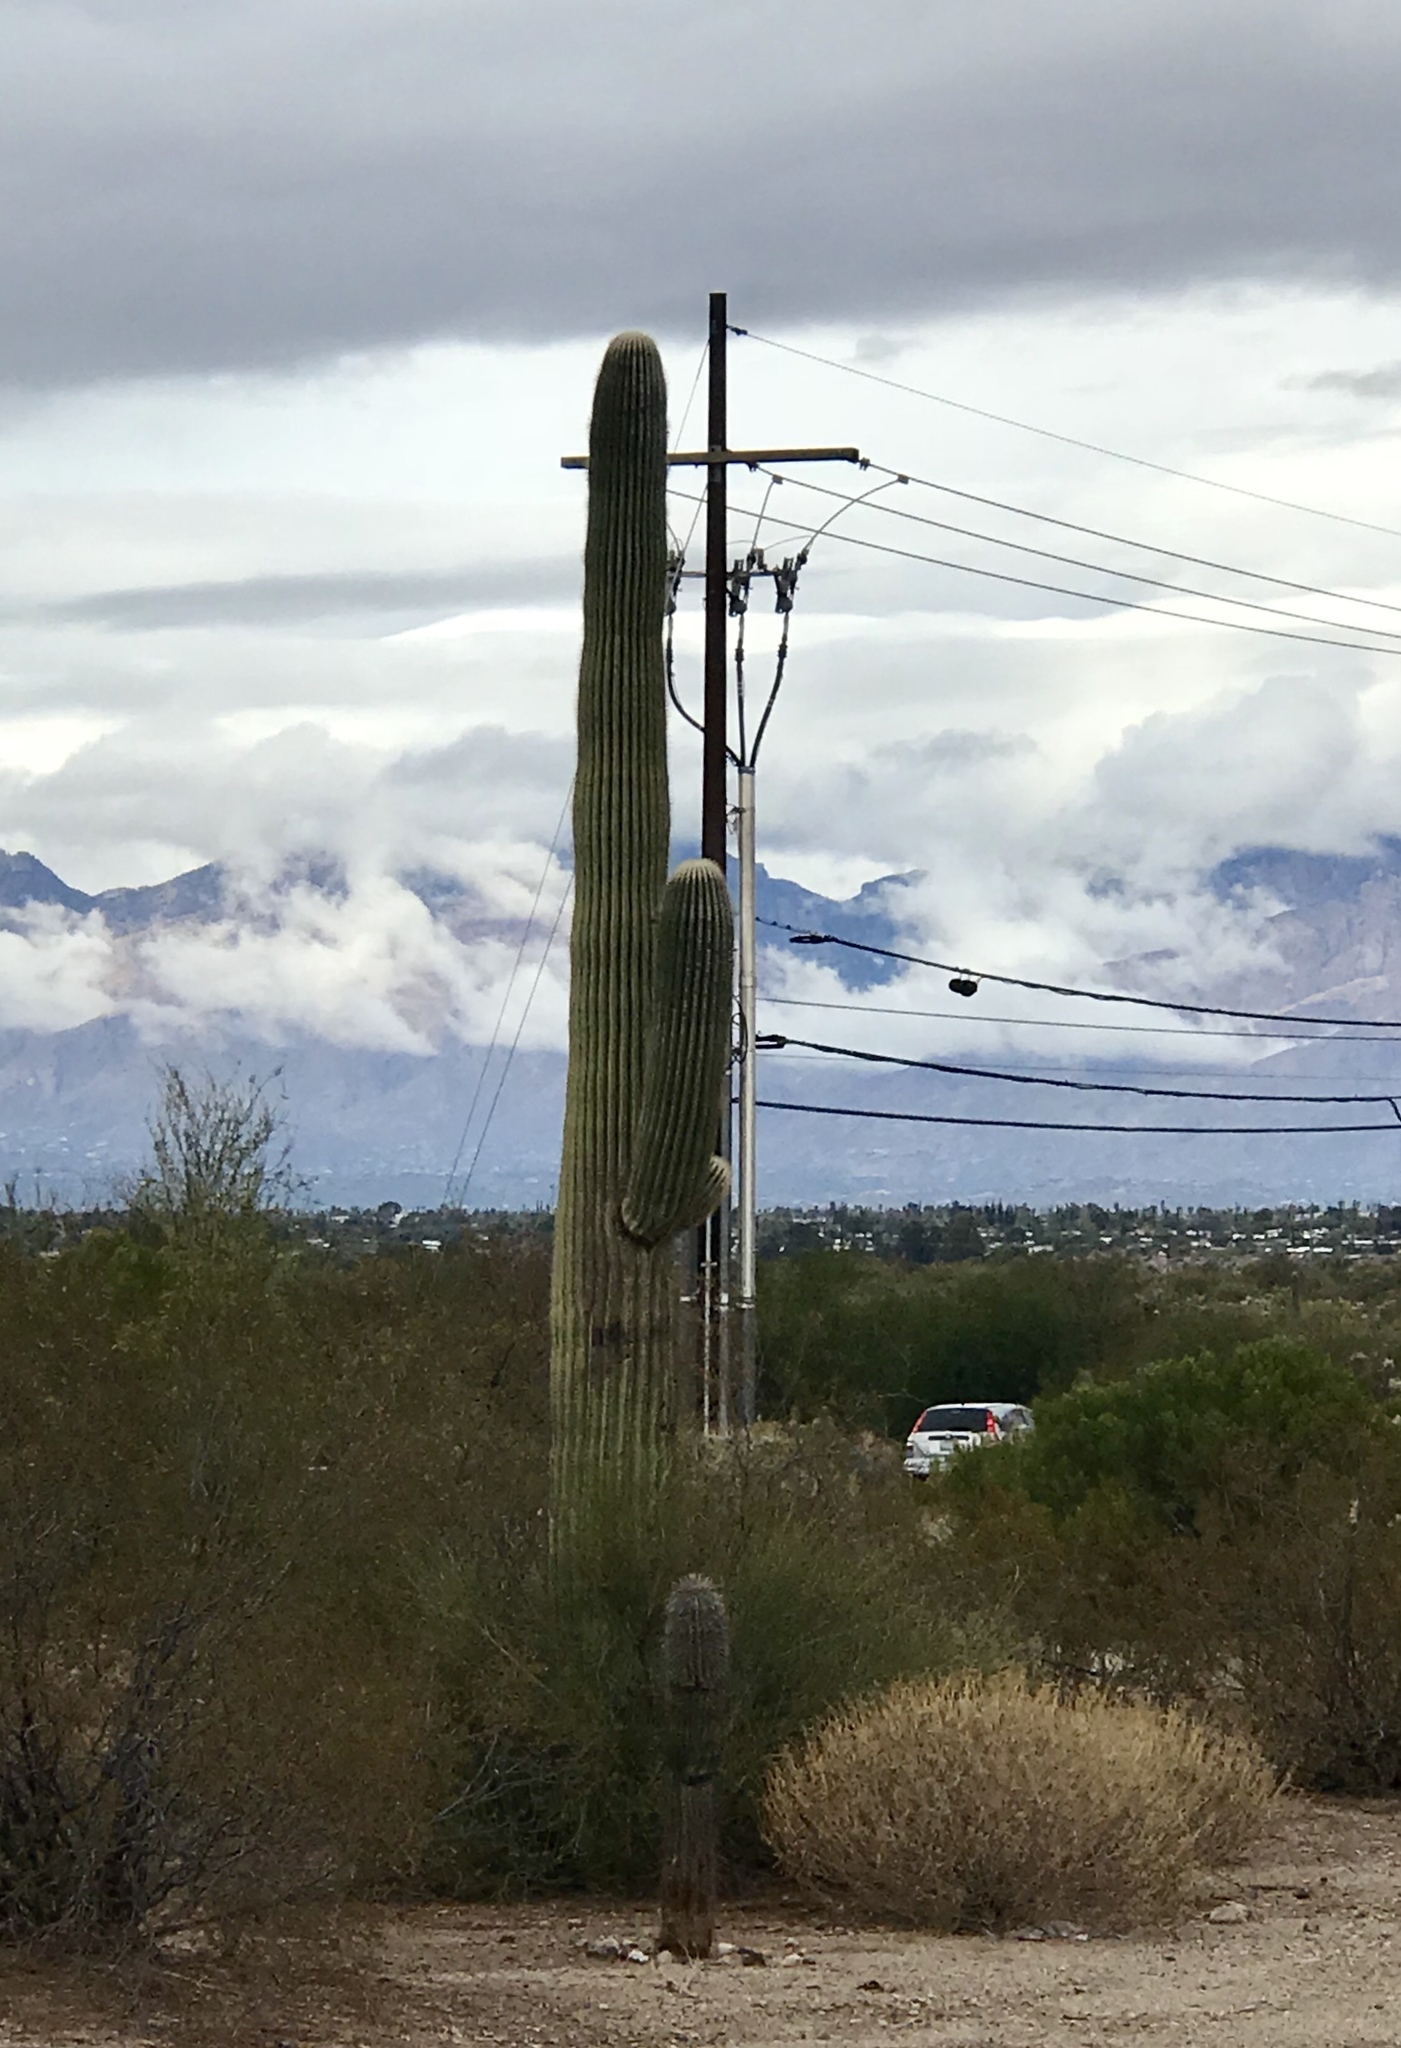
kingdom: Plantae
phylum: Tracheophyta
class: Magnoliopsida
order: Caryophyllales
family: Cactaceae
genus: Carnegiea
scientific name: Carnegiea gigantea
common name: Saguaro
